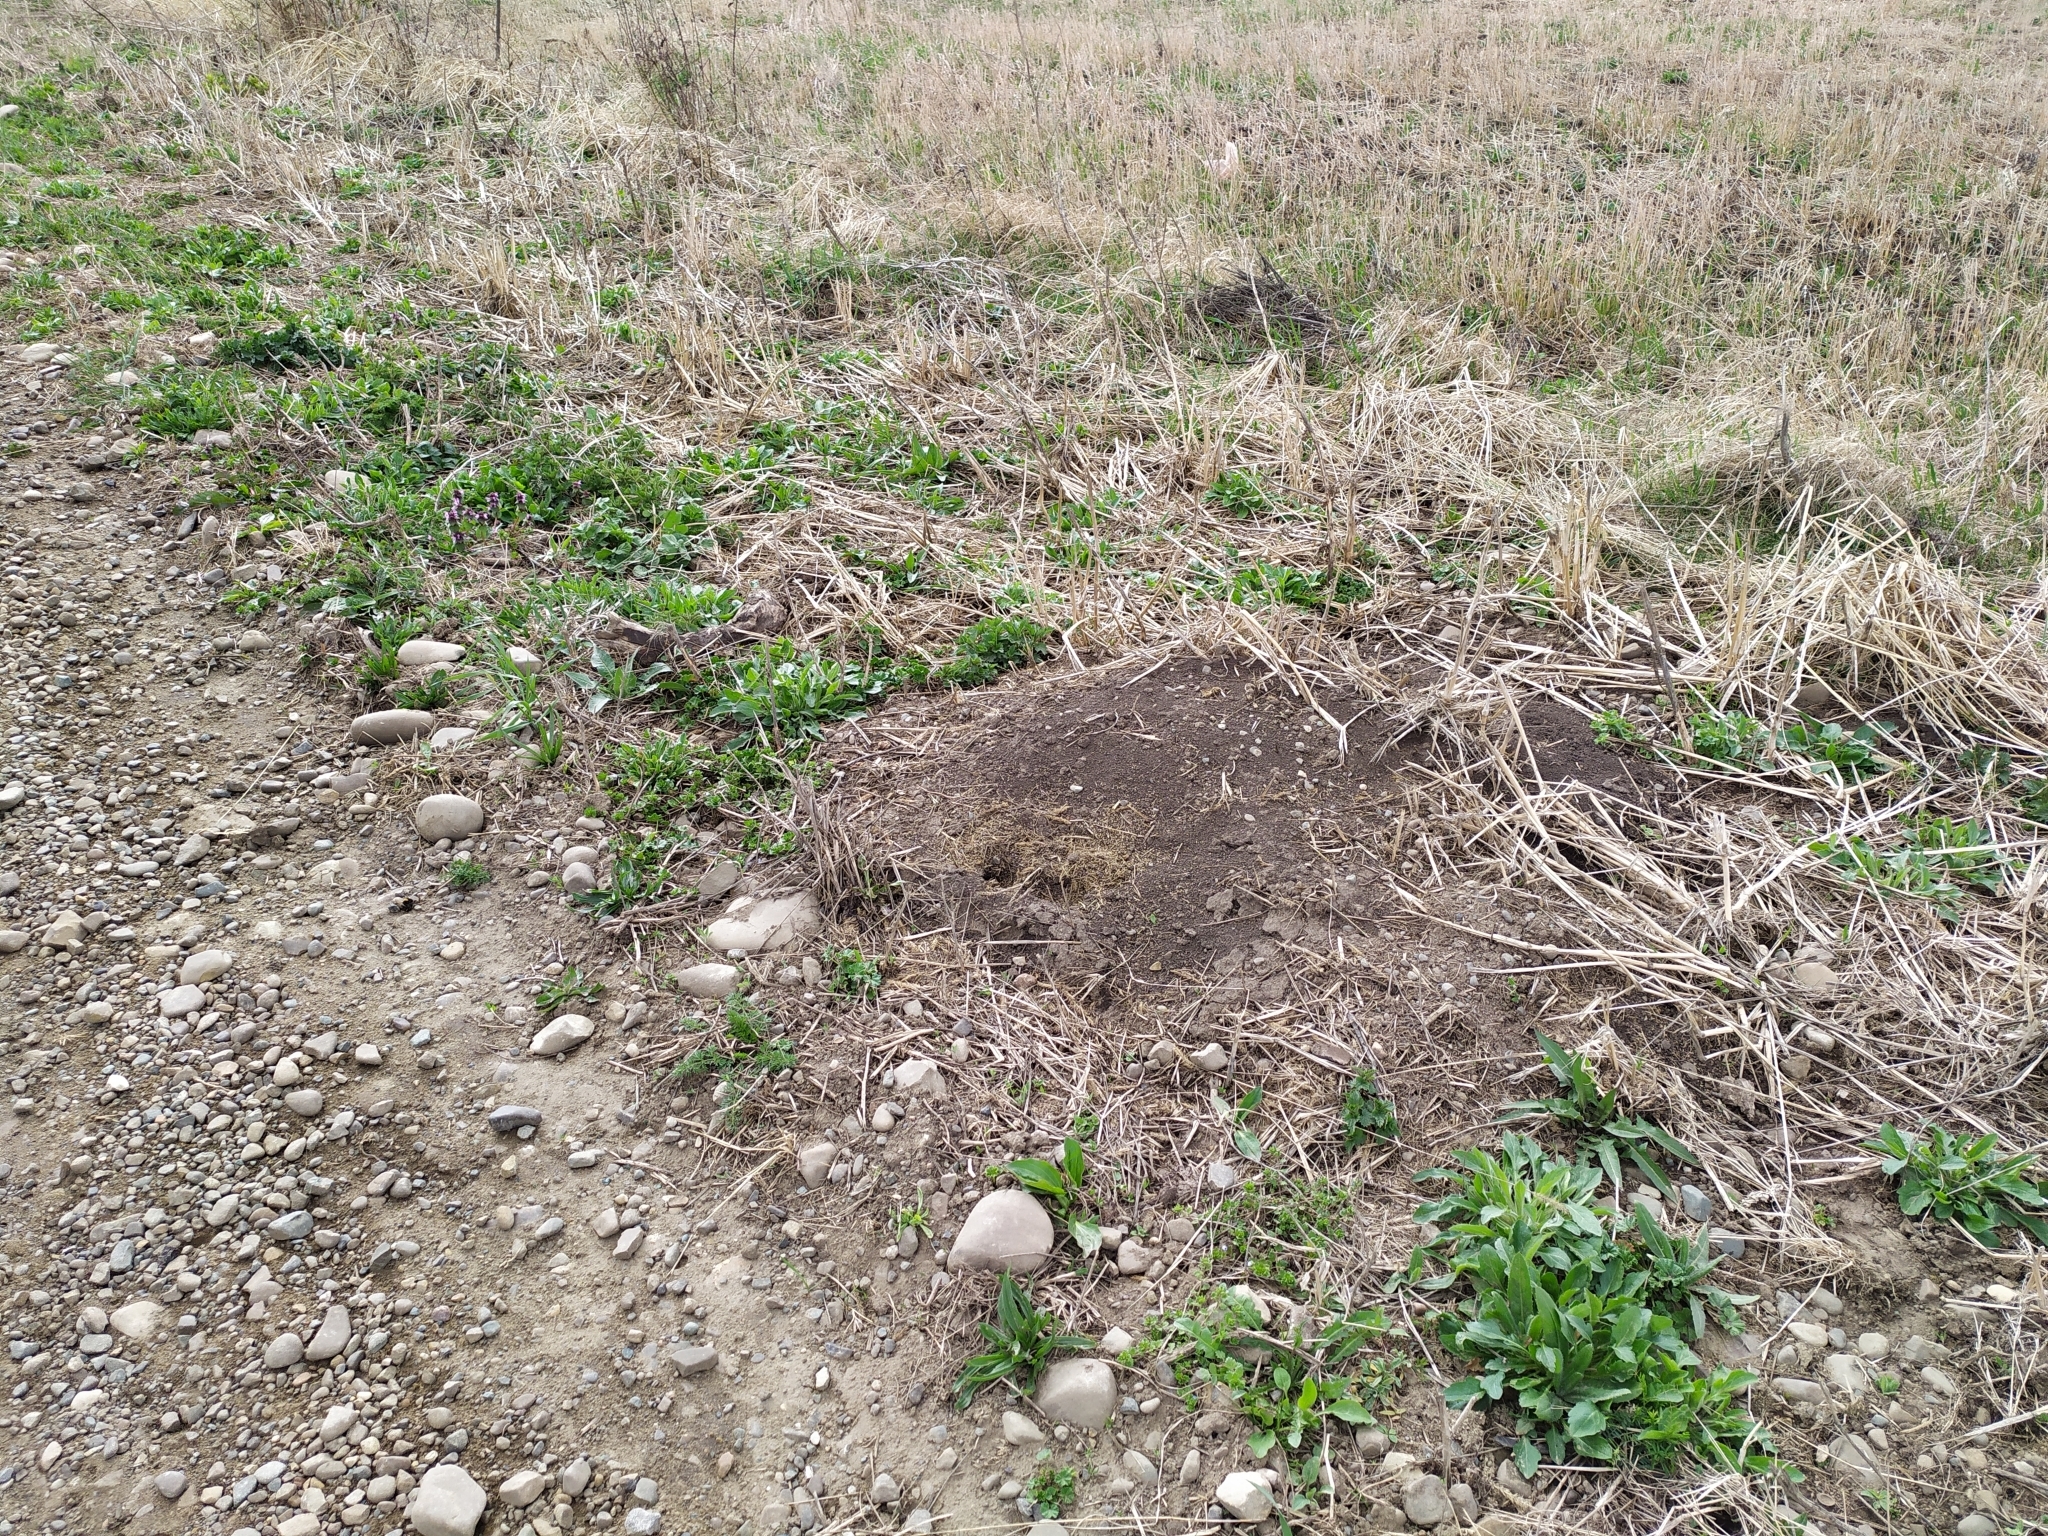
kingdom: Animalia
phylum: Chordata
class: Mammalia
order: Rodentia
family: Muridae
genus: Mus
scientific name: Mus spicilegus
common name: Mound-building mouse
